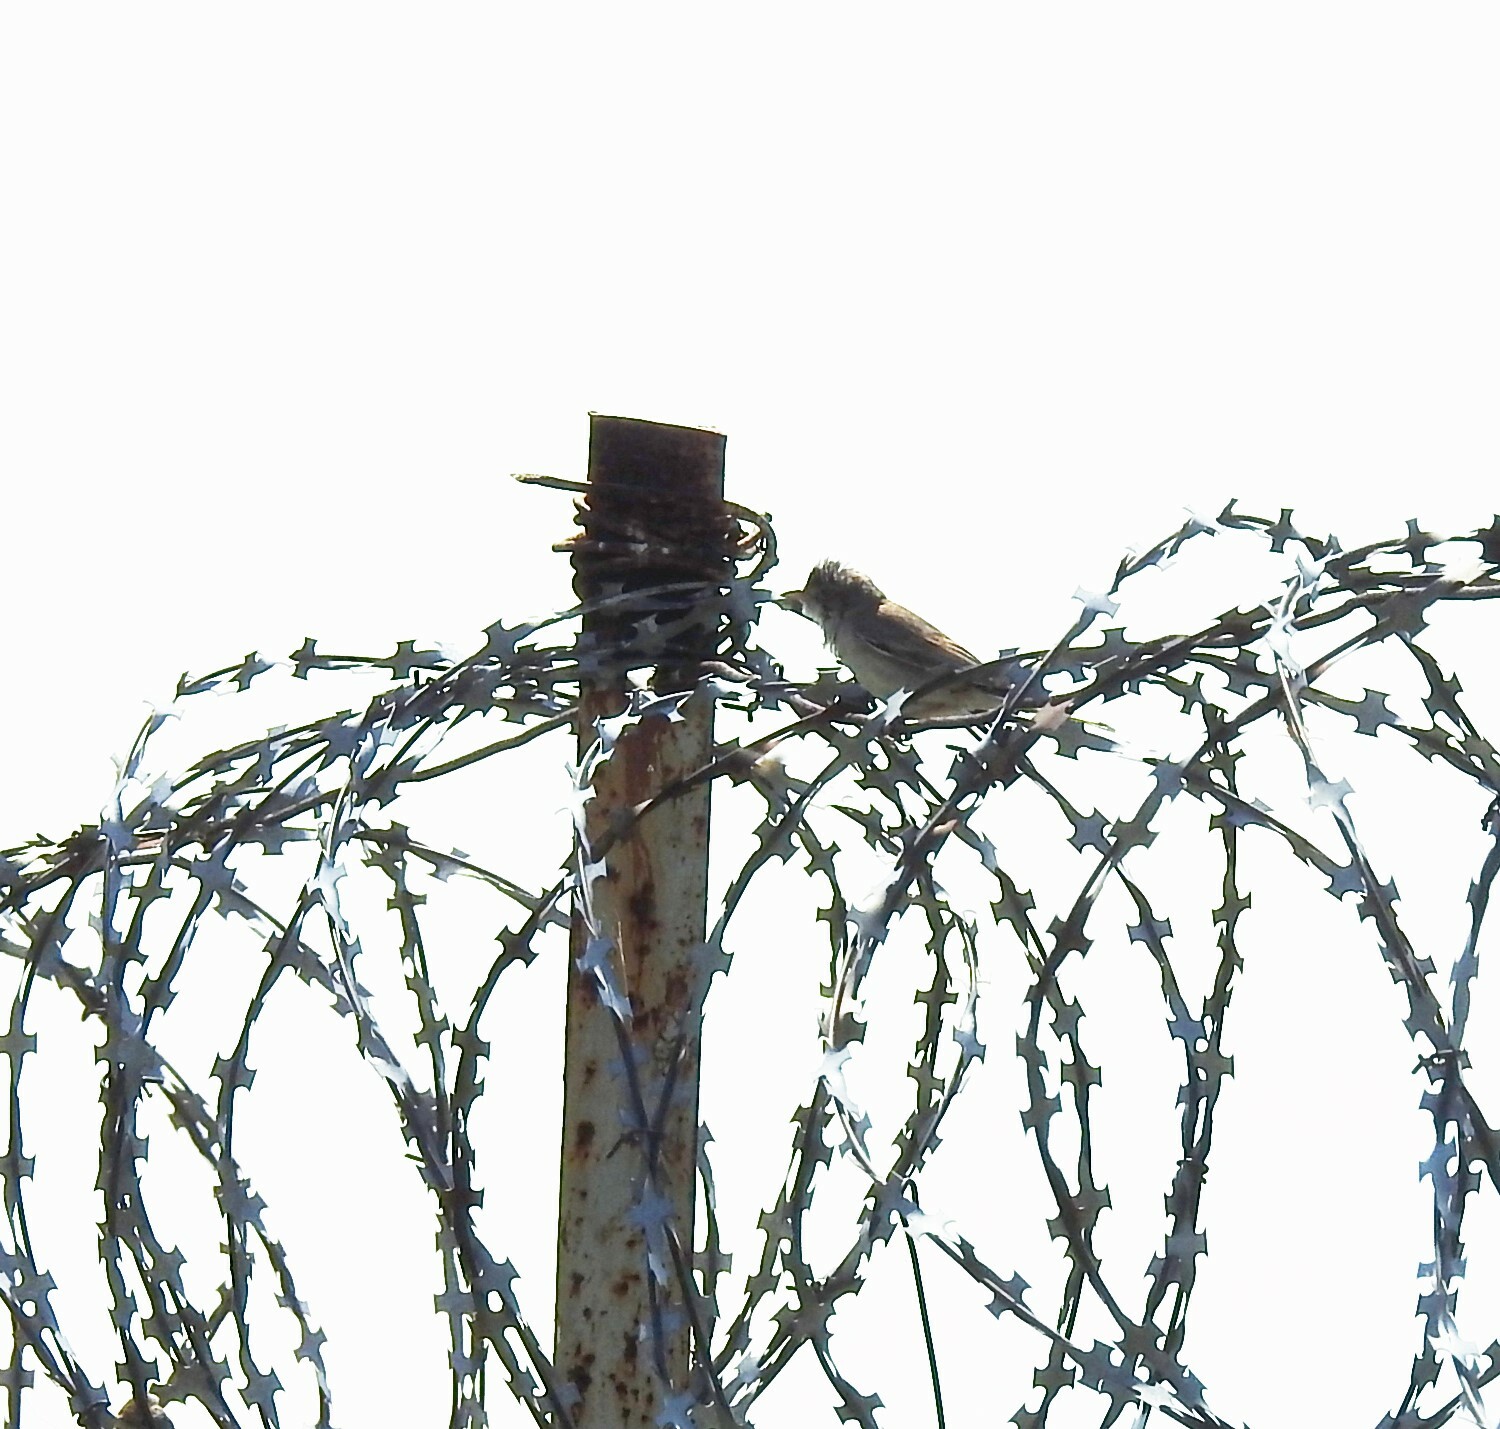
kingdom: Animalia
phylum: Chordata
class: Aves
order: Passeriformes
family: Sylviidae
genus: Sylvia
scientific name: Sylvia communis
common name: Common whitethroat
